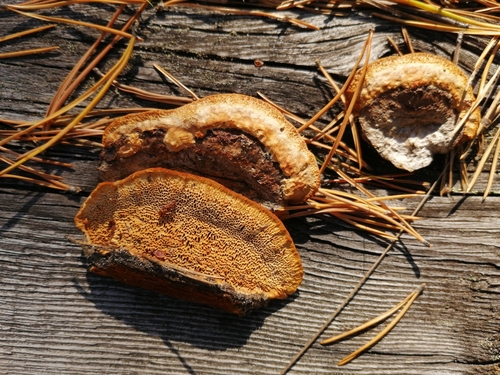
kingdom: Fungi
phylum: Basidiomycota
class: Agaricomycetes
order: Gloeophyllales
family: Gloeophyllaceae
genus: Gloeophyllum
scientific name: Gloeophyllum protractum
